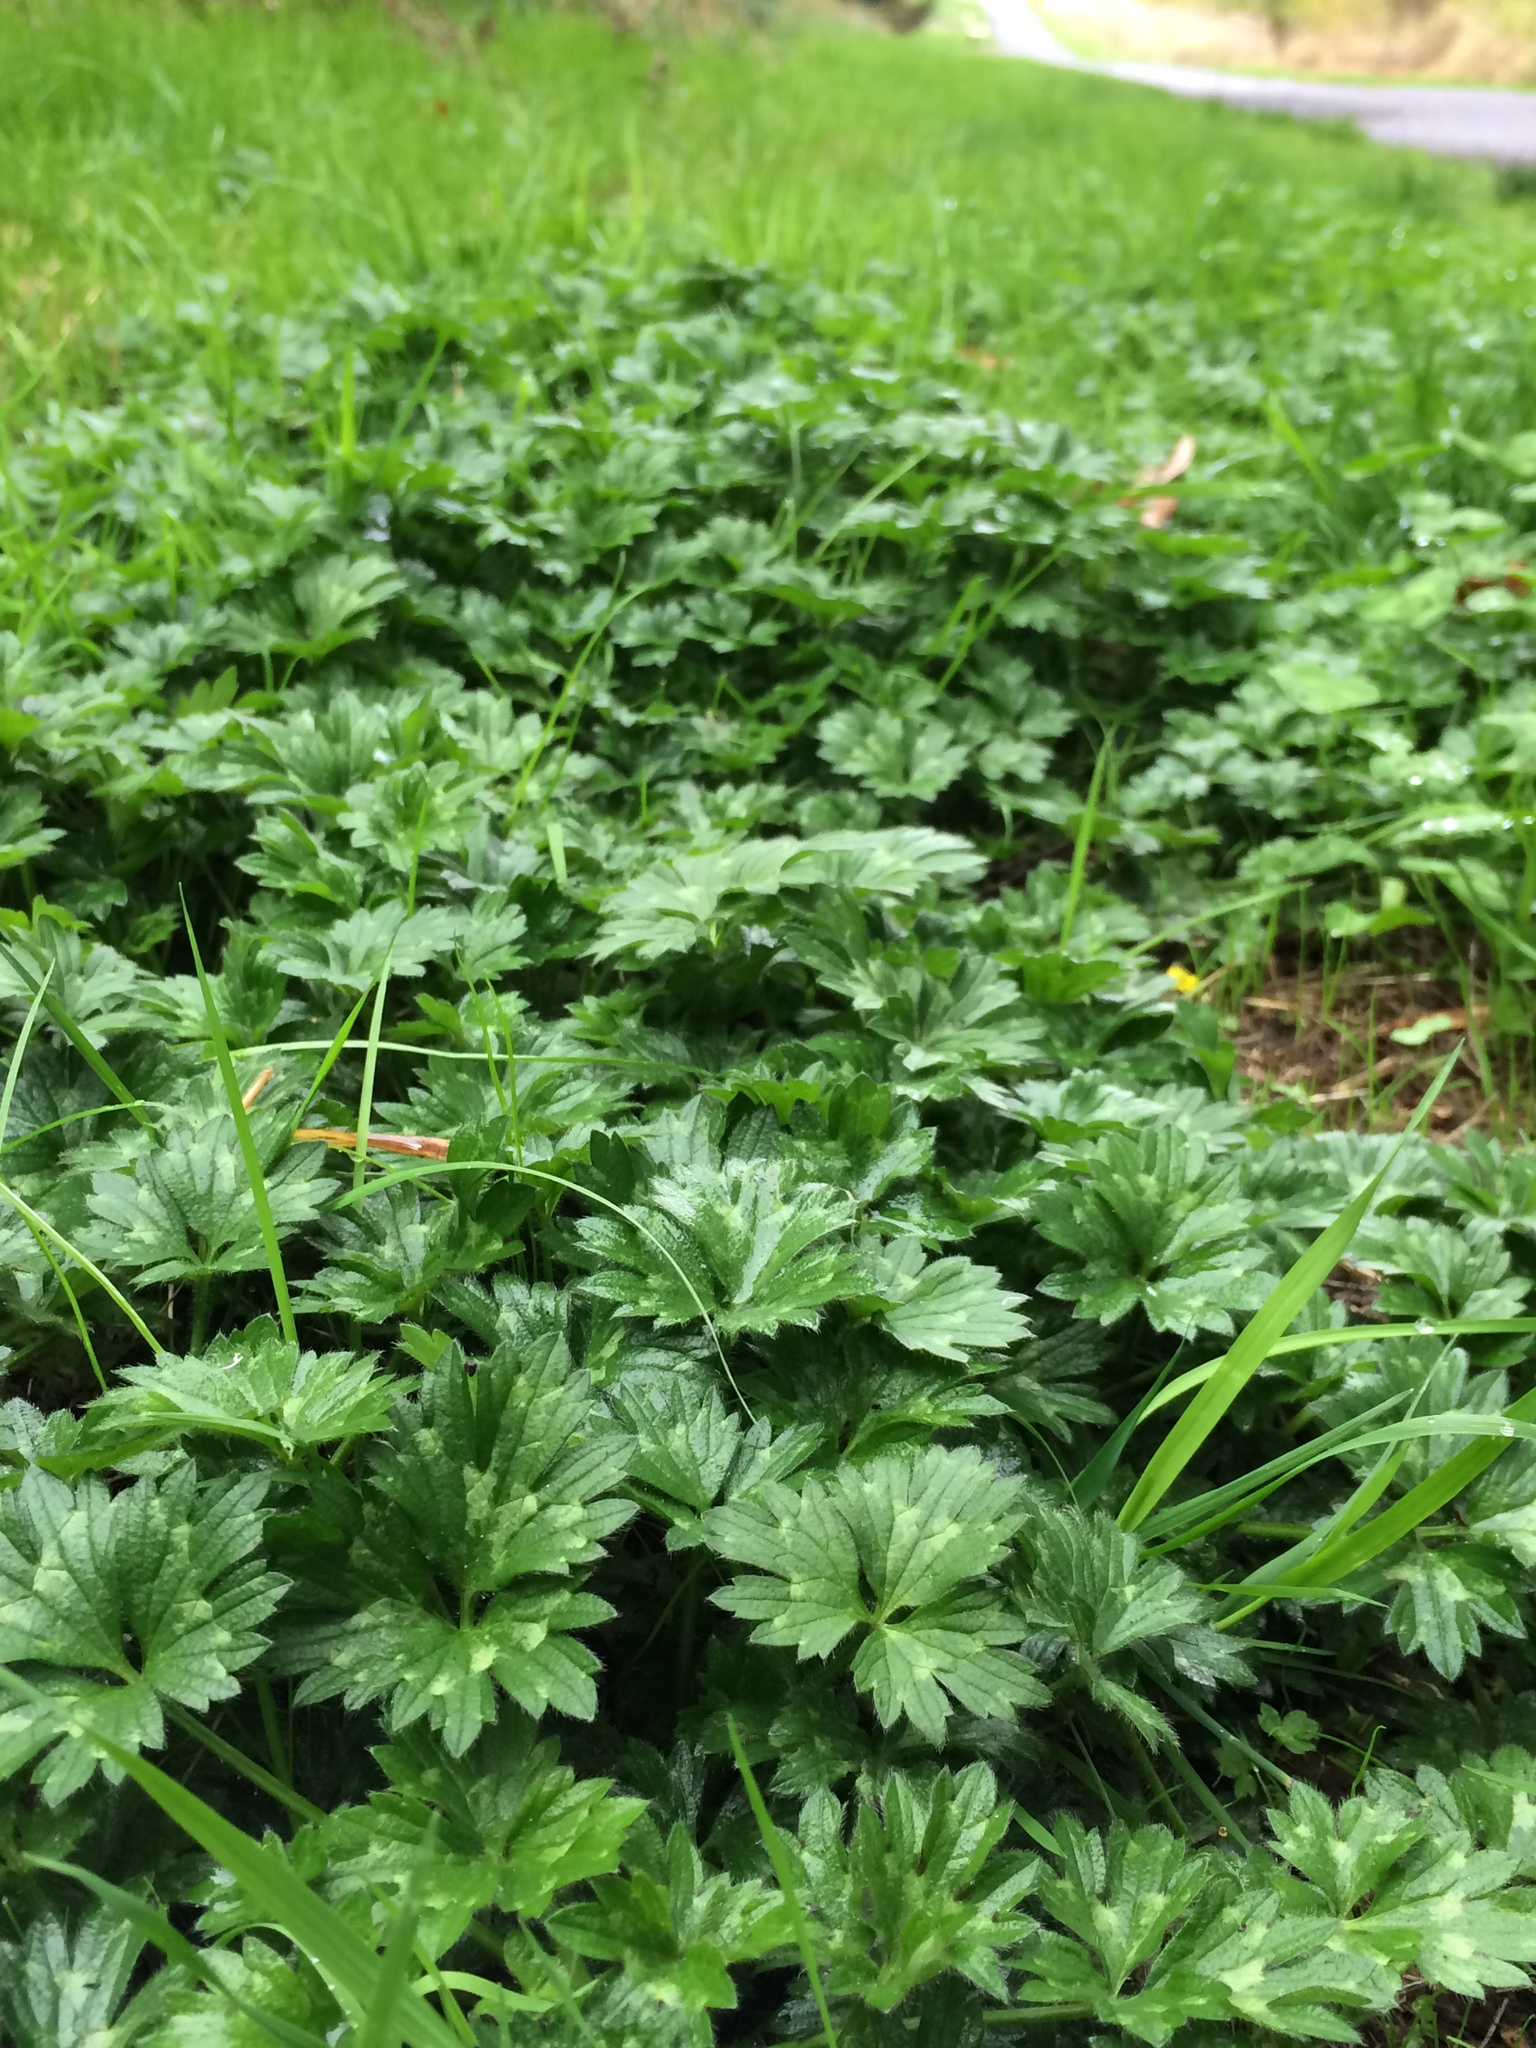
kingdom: Plantae
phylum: Tracheophyta
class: Magnoliopsida
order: Ranunculales
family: Ranunculaceae
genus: Ranunculus
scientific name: Ranunculus repens
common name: Creeping buttercup
